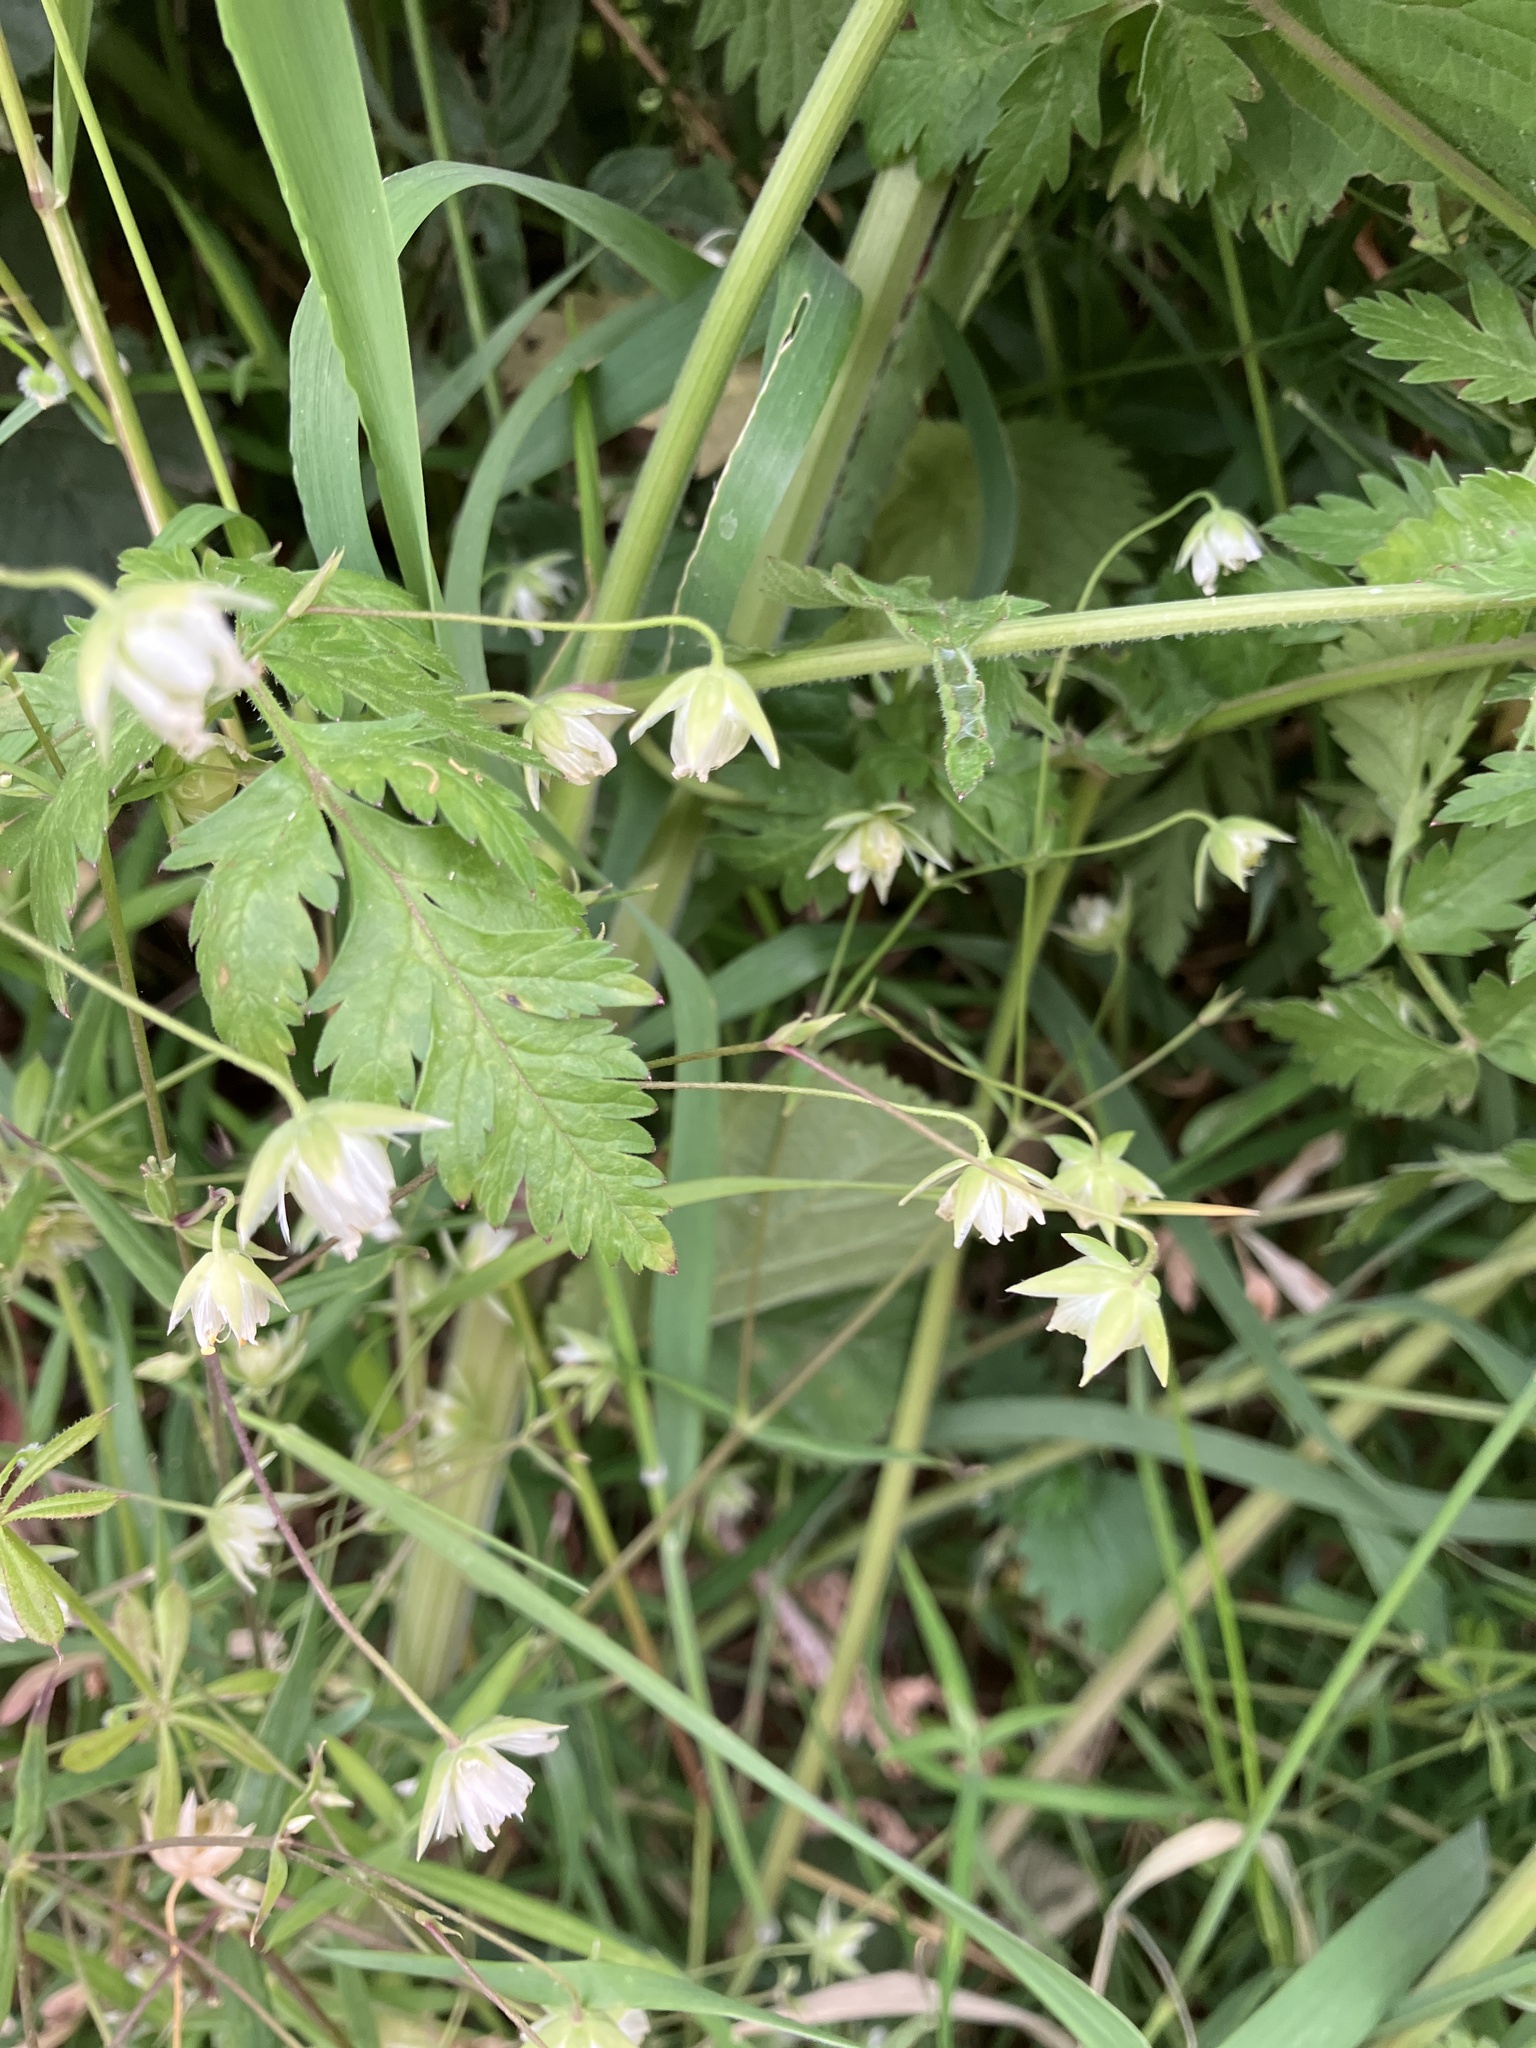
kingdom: Plantae
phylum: Tracheophyta
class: Magnoliopsida
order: Caryophyllales
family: Caryophyllaceae
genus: Rabelera
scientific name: Rabelera holostea
